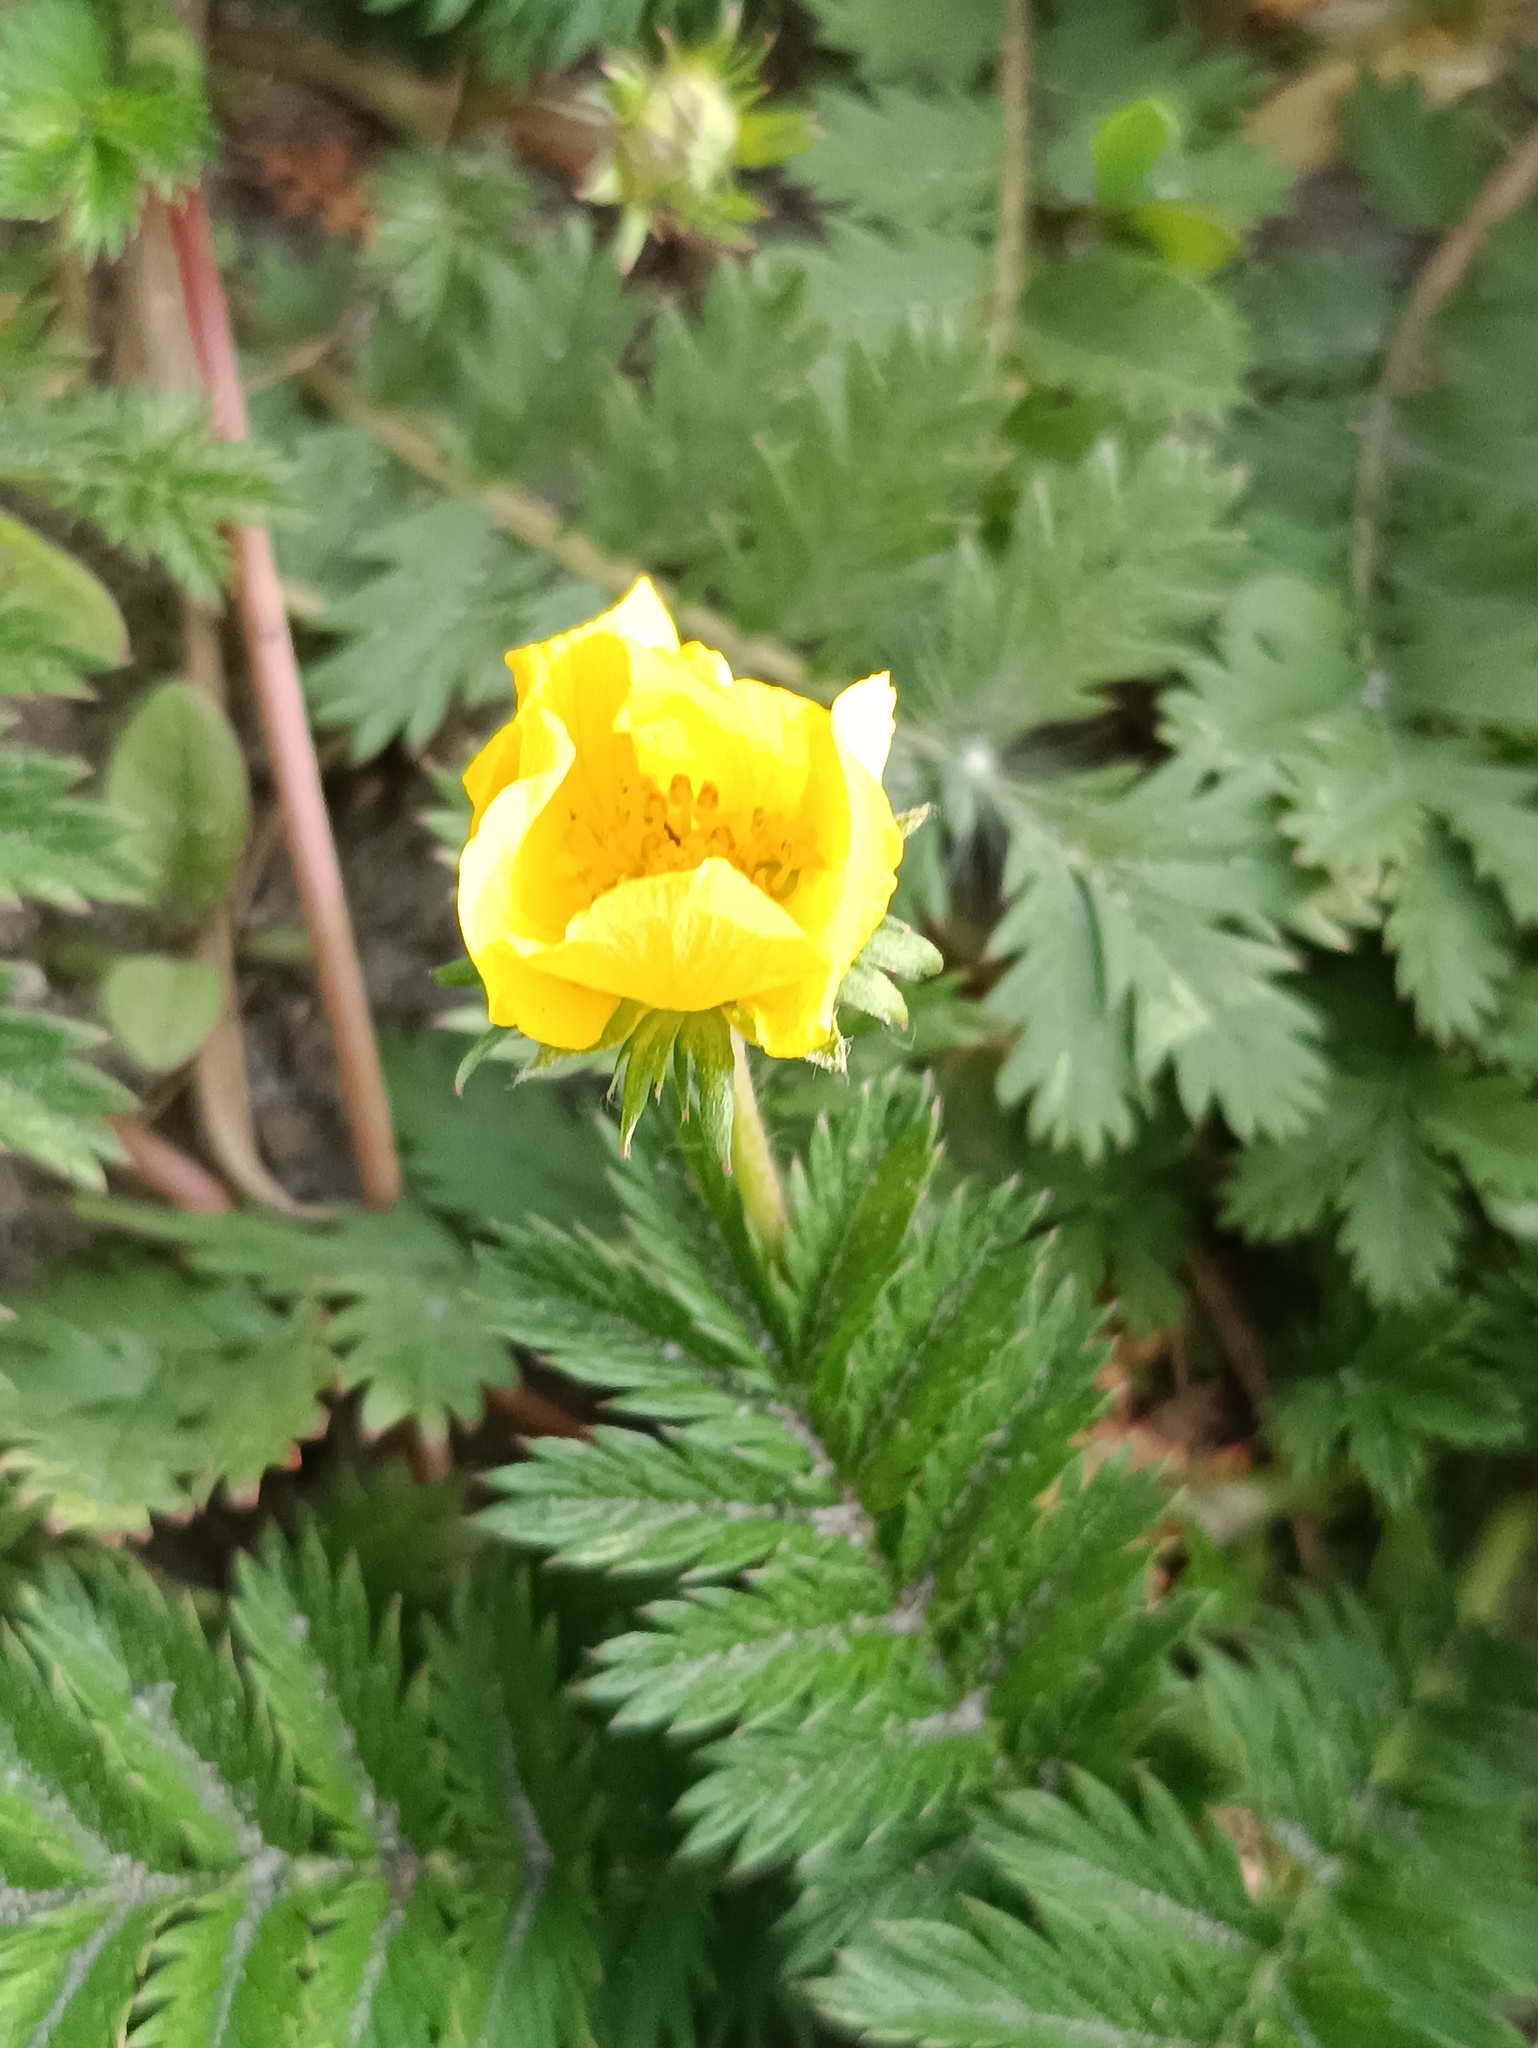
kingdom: Plantae
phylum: Tracheophyta
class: Magnoliopsida
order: Rosales
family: Rosaceae
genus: Argentina
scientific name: Argentina anserina
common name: Common silverweed
